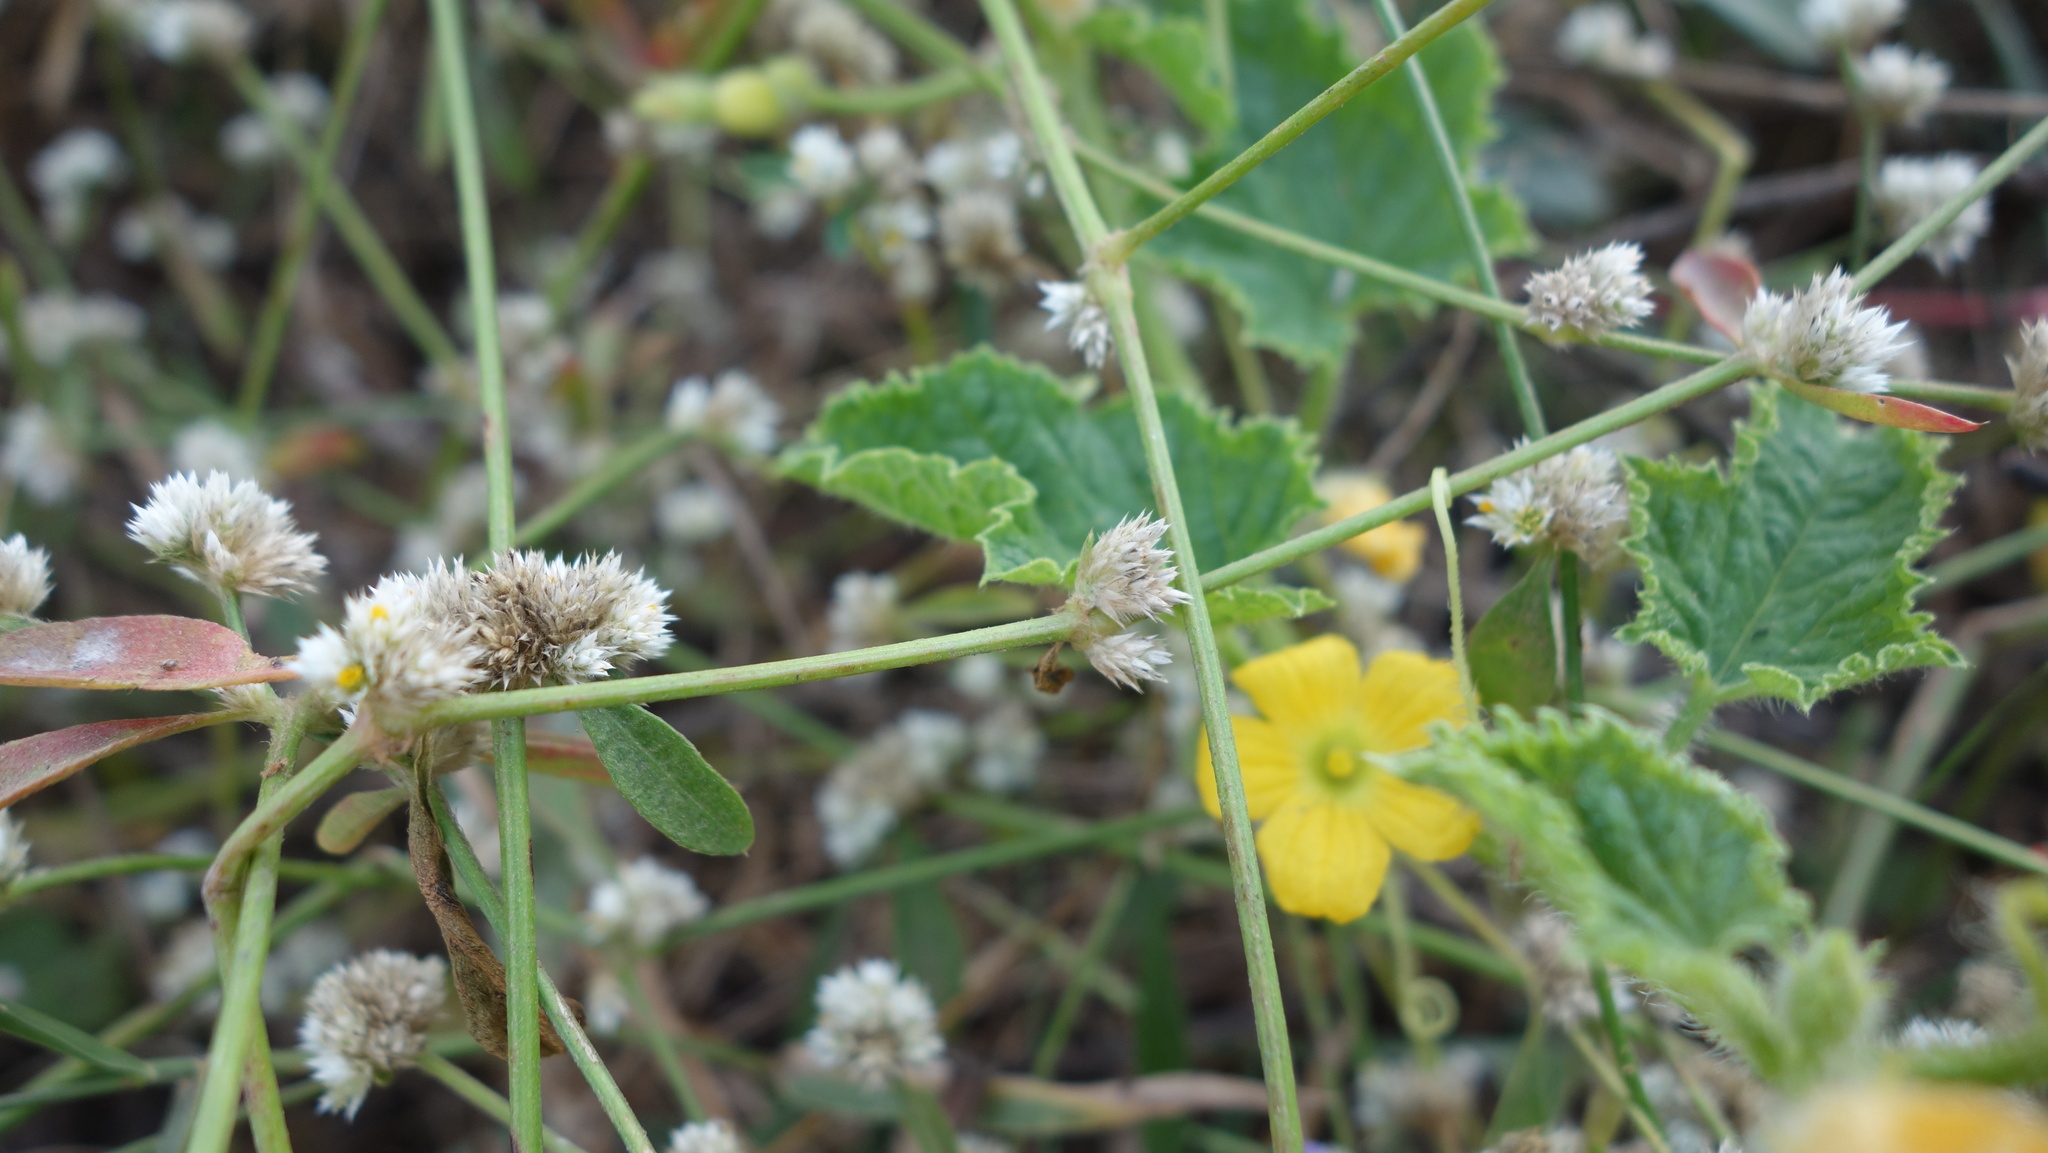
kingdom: Plantae
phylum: Tracheophyta
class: Magnoliopsida
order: Cucurbitales
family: Cucurbitaceae
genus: Cucumis
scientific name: Cucumis melo
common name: Melon
